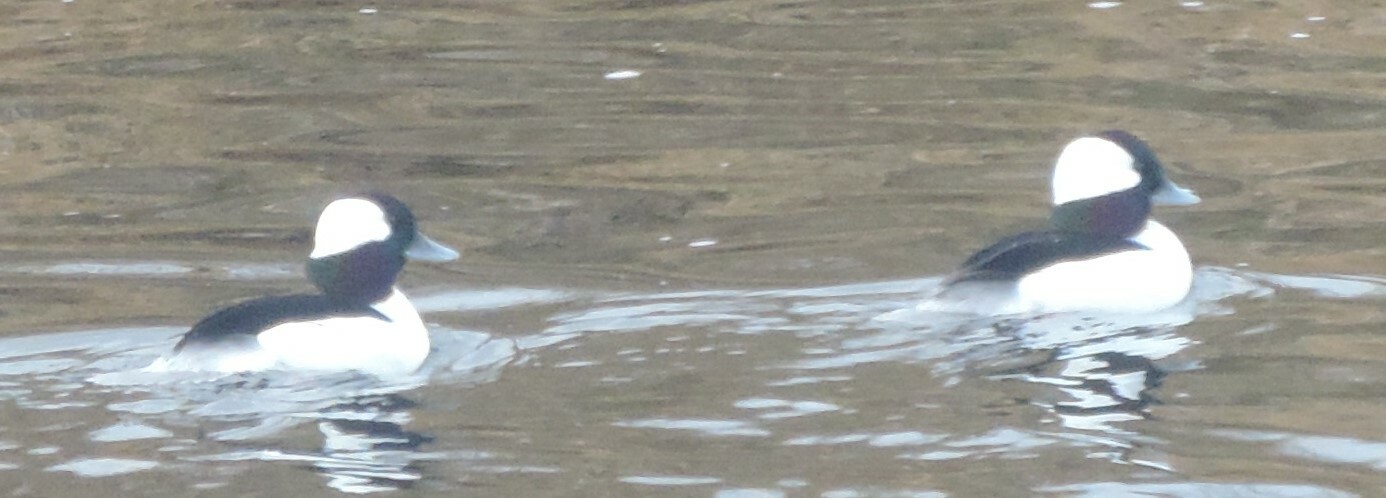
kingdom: Animalia
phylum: Chordata
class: Aves
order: Anseriformes
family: Anatidae
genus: Bucephala
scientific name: Bucephala albeola
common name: Bufflehead
